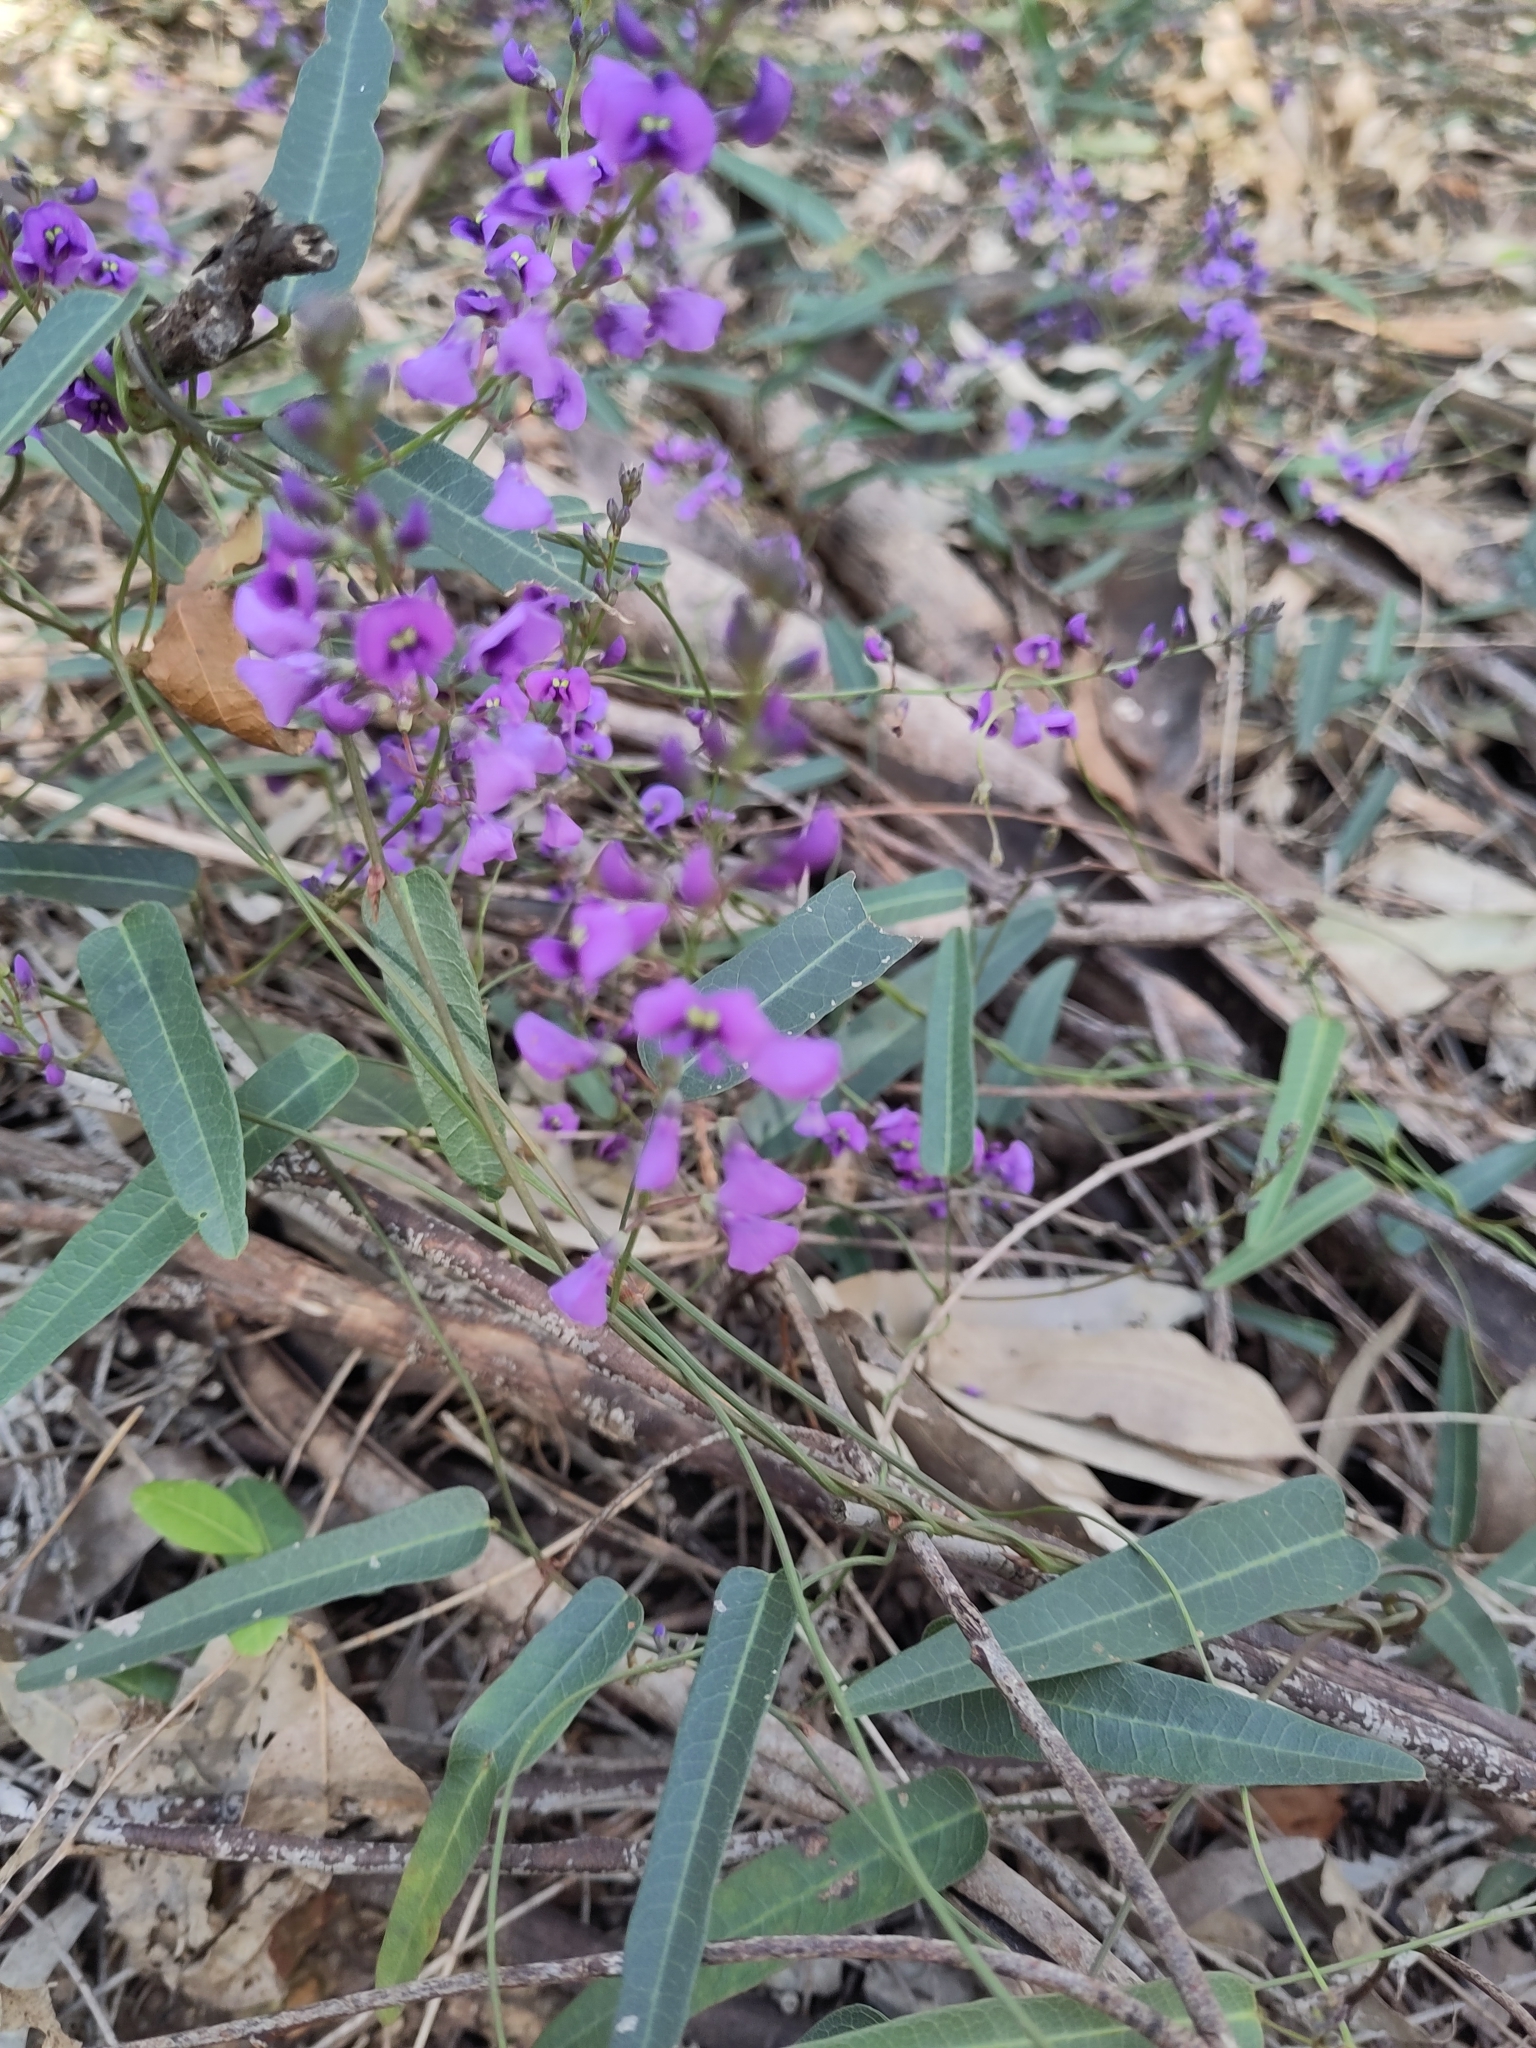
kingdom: Plantae
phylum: Tracheophyta
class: Magnoliopsida
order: Fabales
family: Fabaceae
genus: Hardenbergia
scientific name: Hardenbergia violacea
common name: Coral-pea
